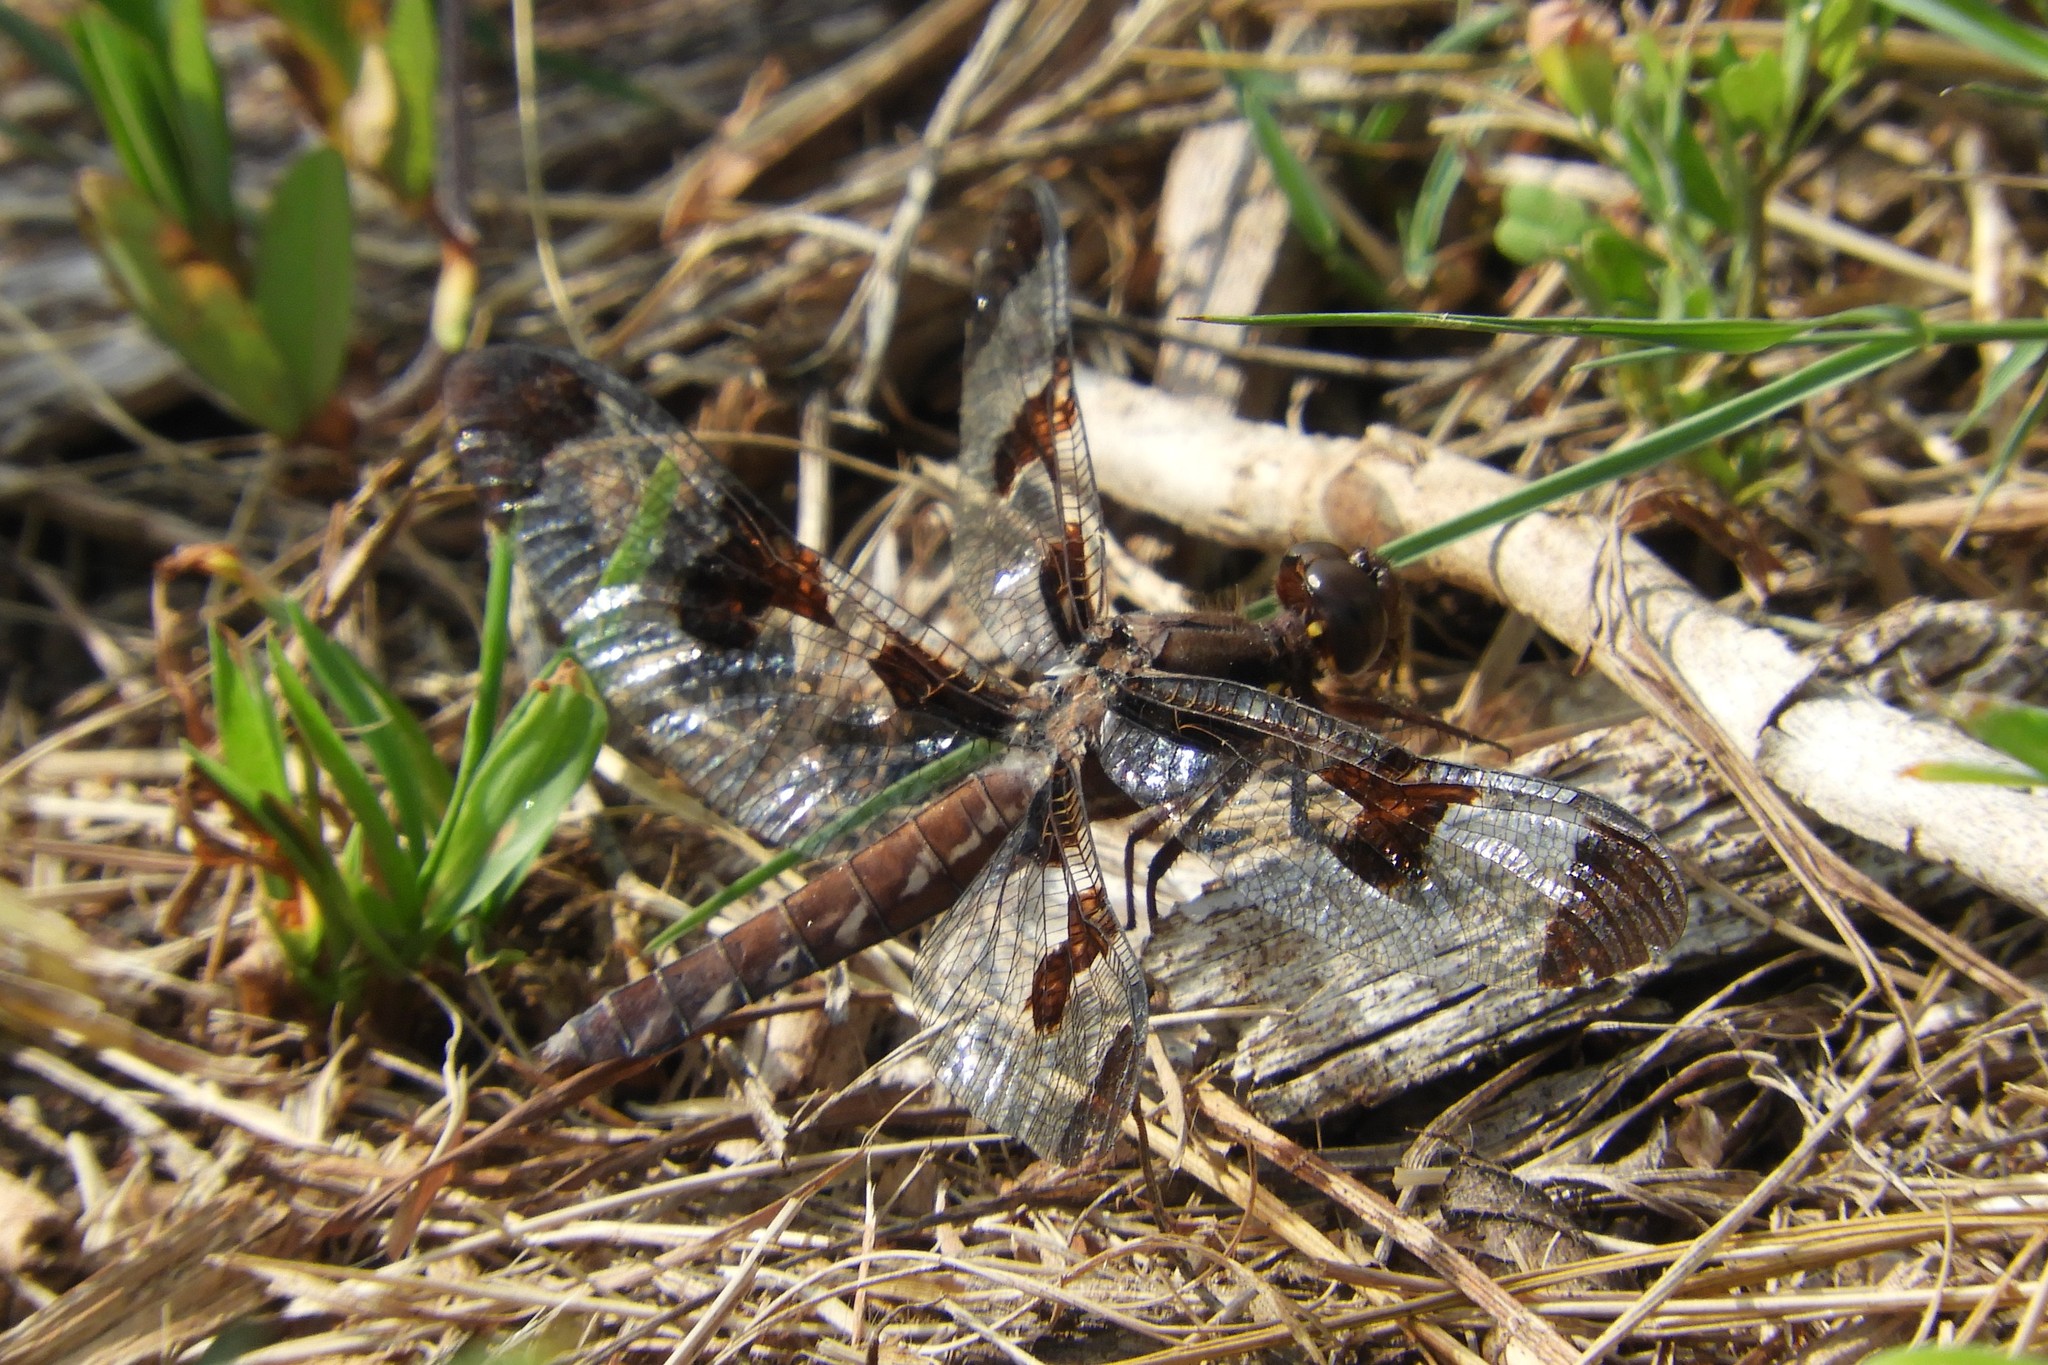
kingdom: Animalia
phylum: Arthropoda
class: Insecta
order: Odonata
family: Libellulidae
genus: Plathemis
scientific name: Plathemis lydia
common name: Common whitetail
